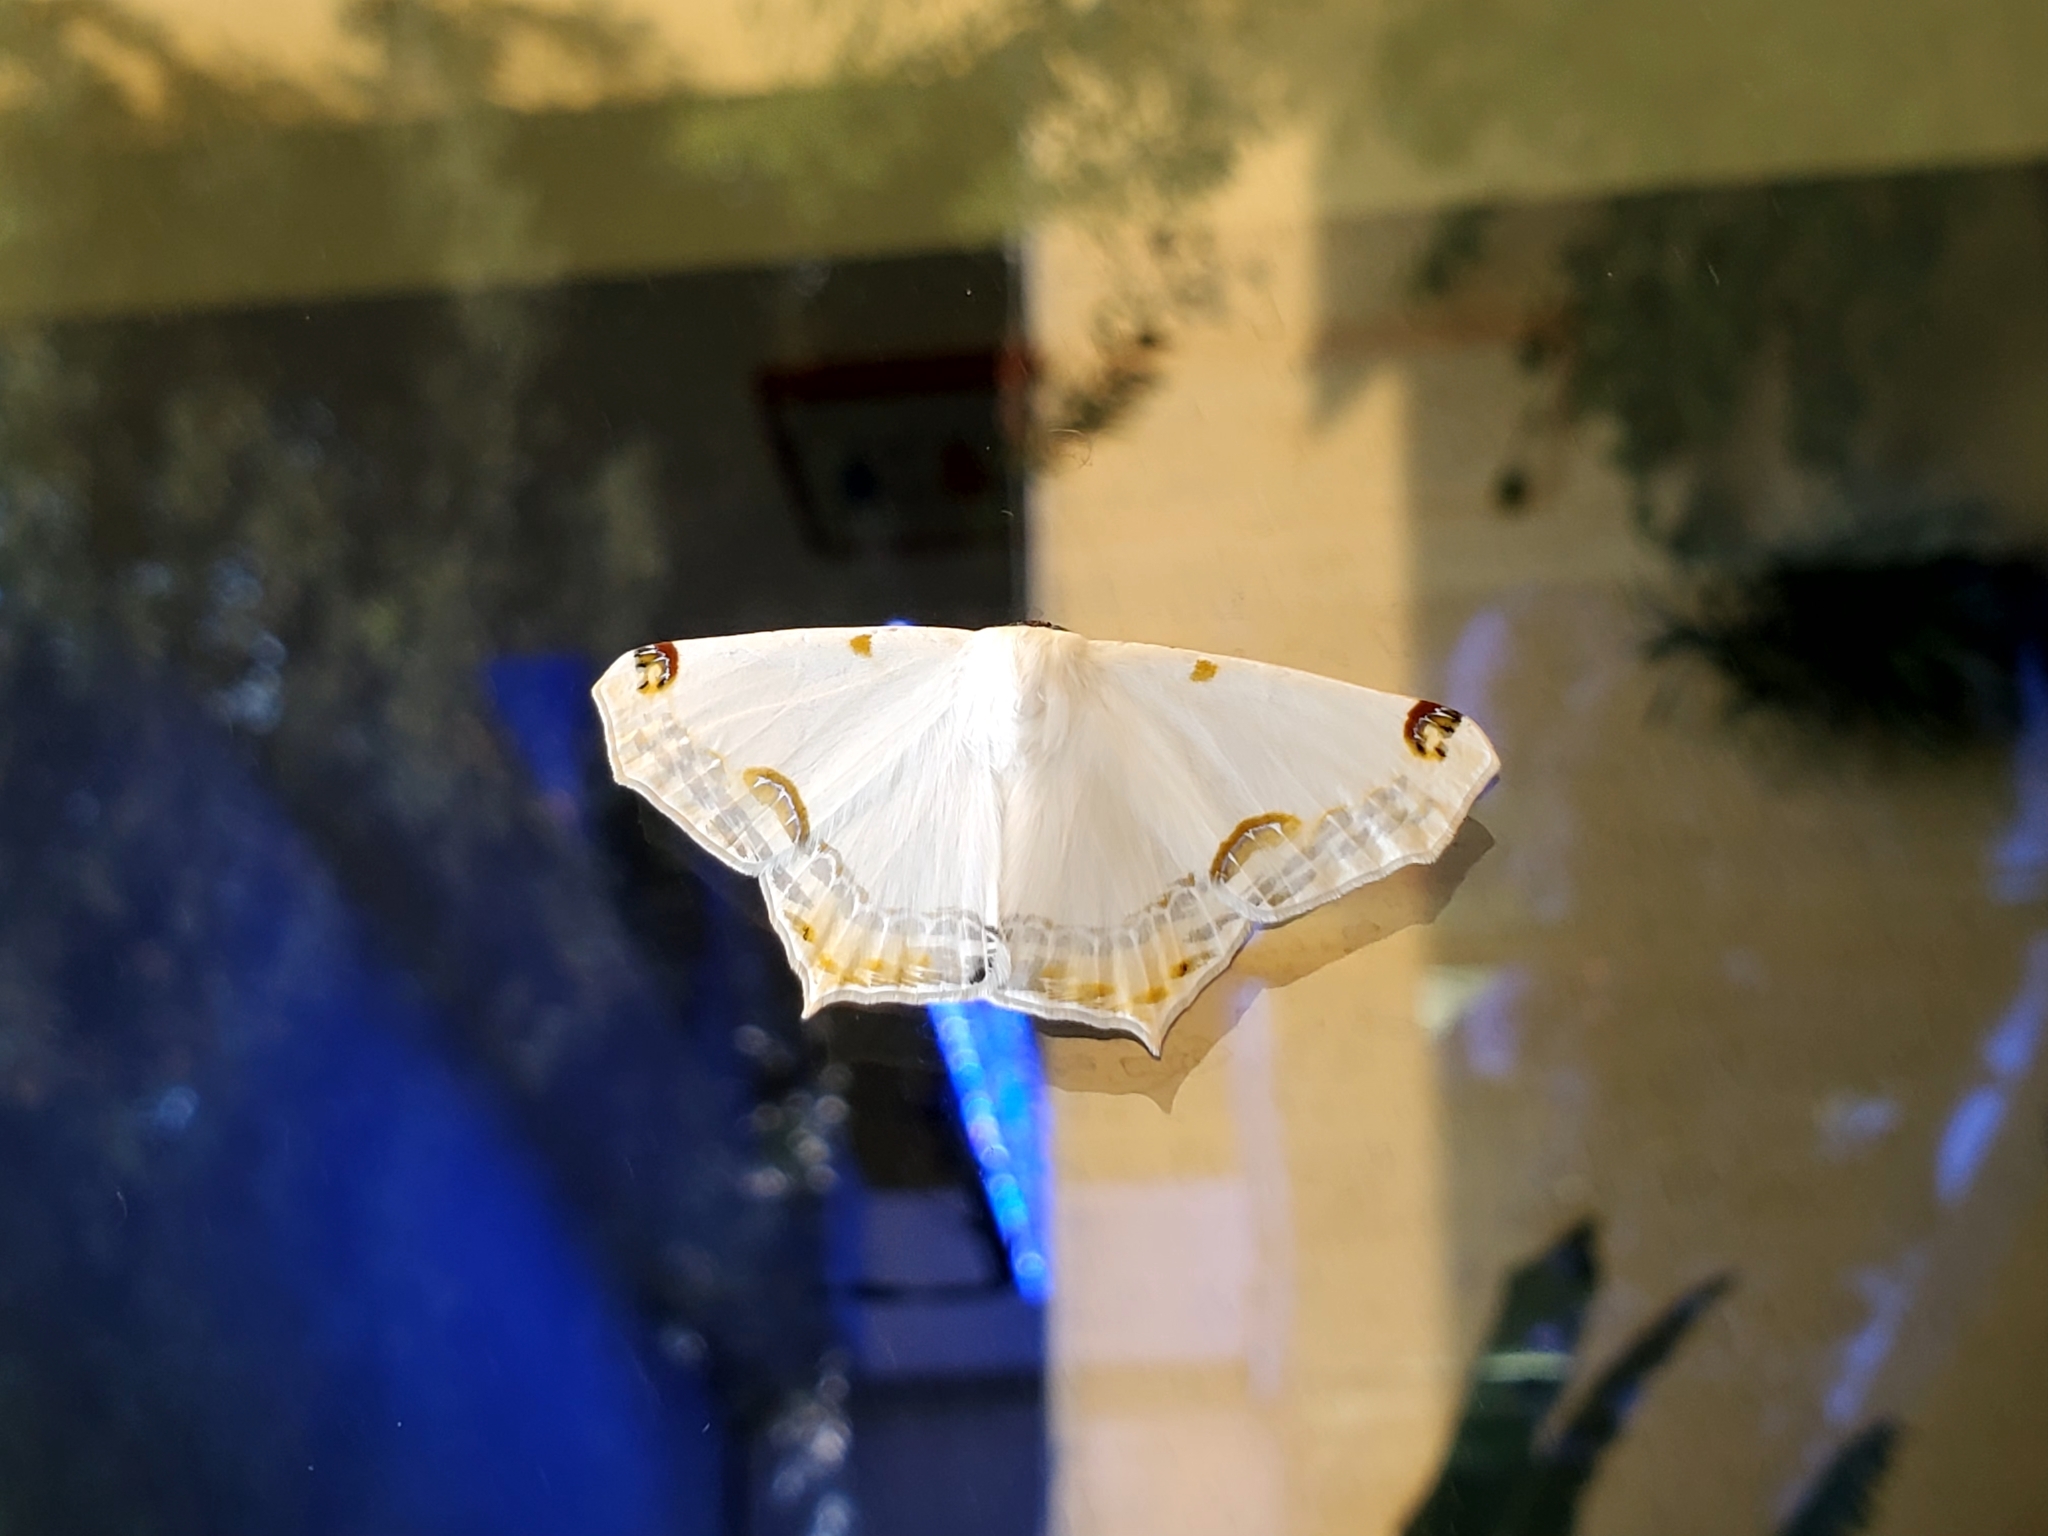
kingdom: Animalia
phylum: Arthropoda
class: Insecta
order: Lepidoptera
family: Geometridae
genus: Sericoptera
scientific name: Sericoptera mahometaria
